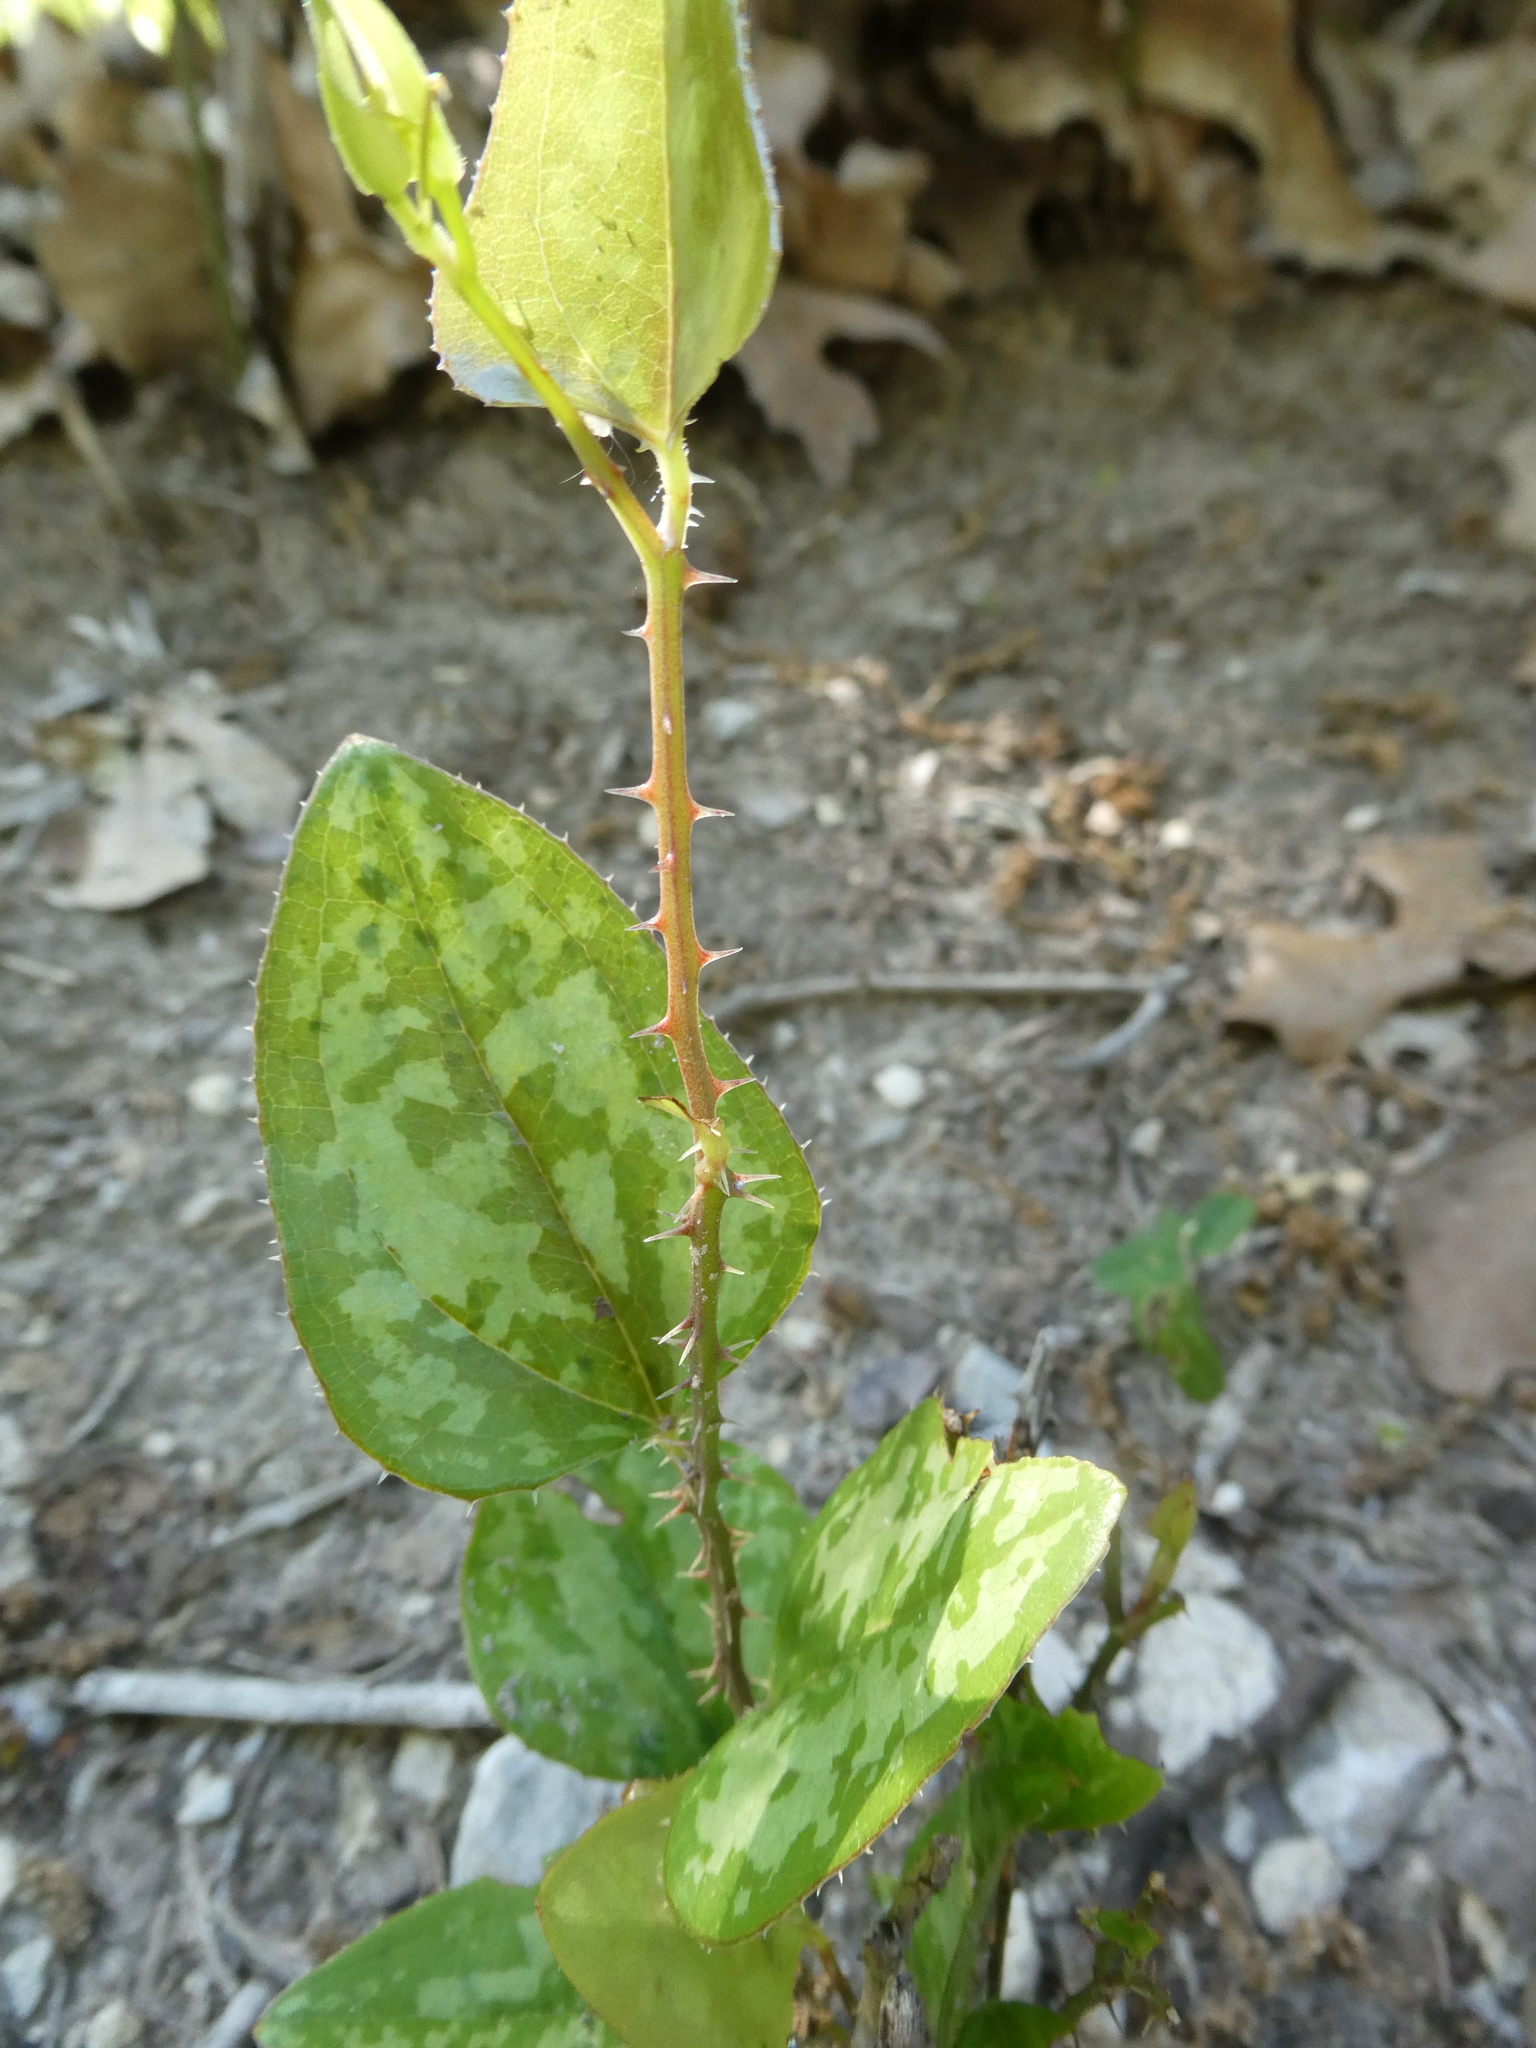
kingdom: Plantae
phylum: Tracheophyta
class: Liliopsida
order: Liliales
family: Smilacaceae
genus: Smilax
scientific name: Smilax bona-nox
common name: Catbrier
